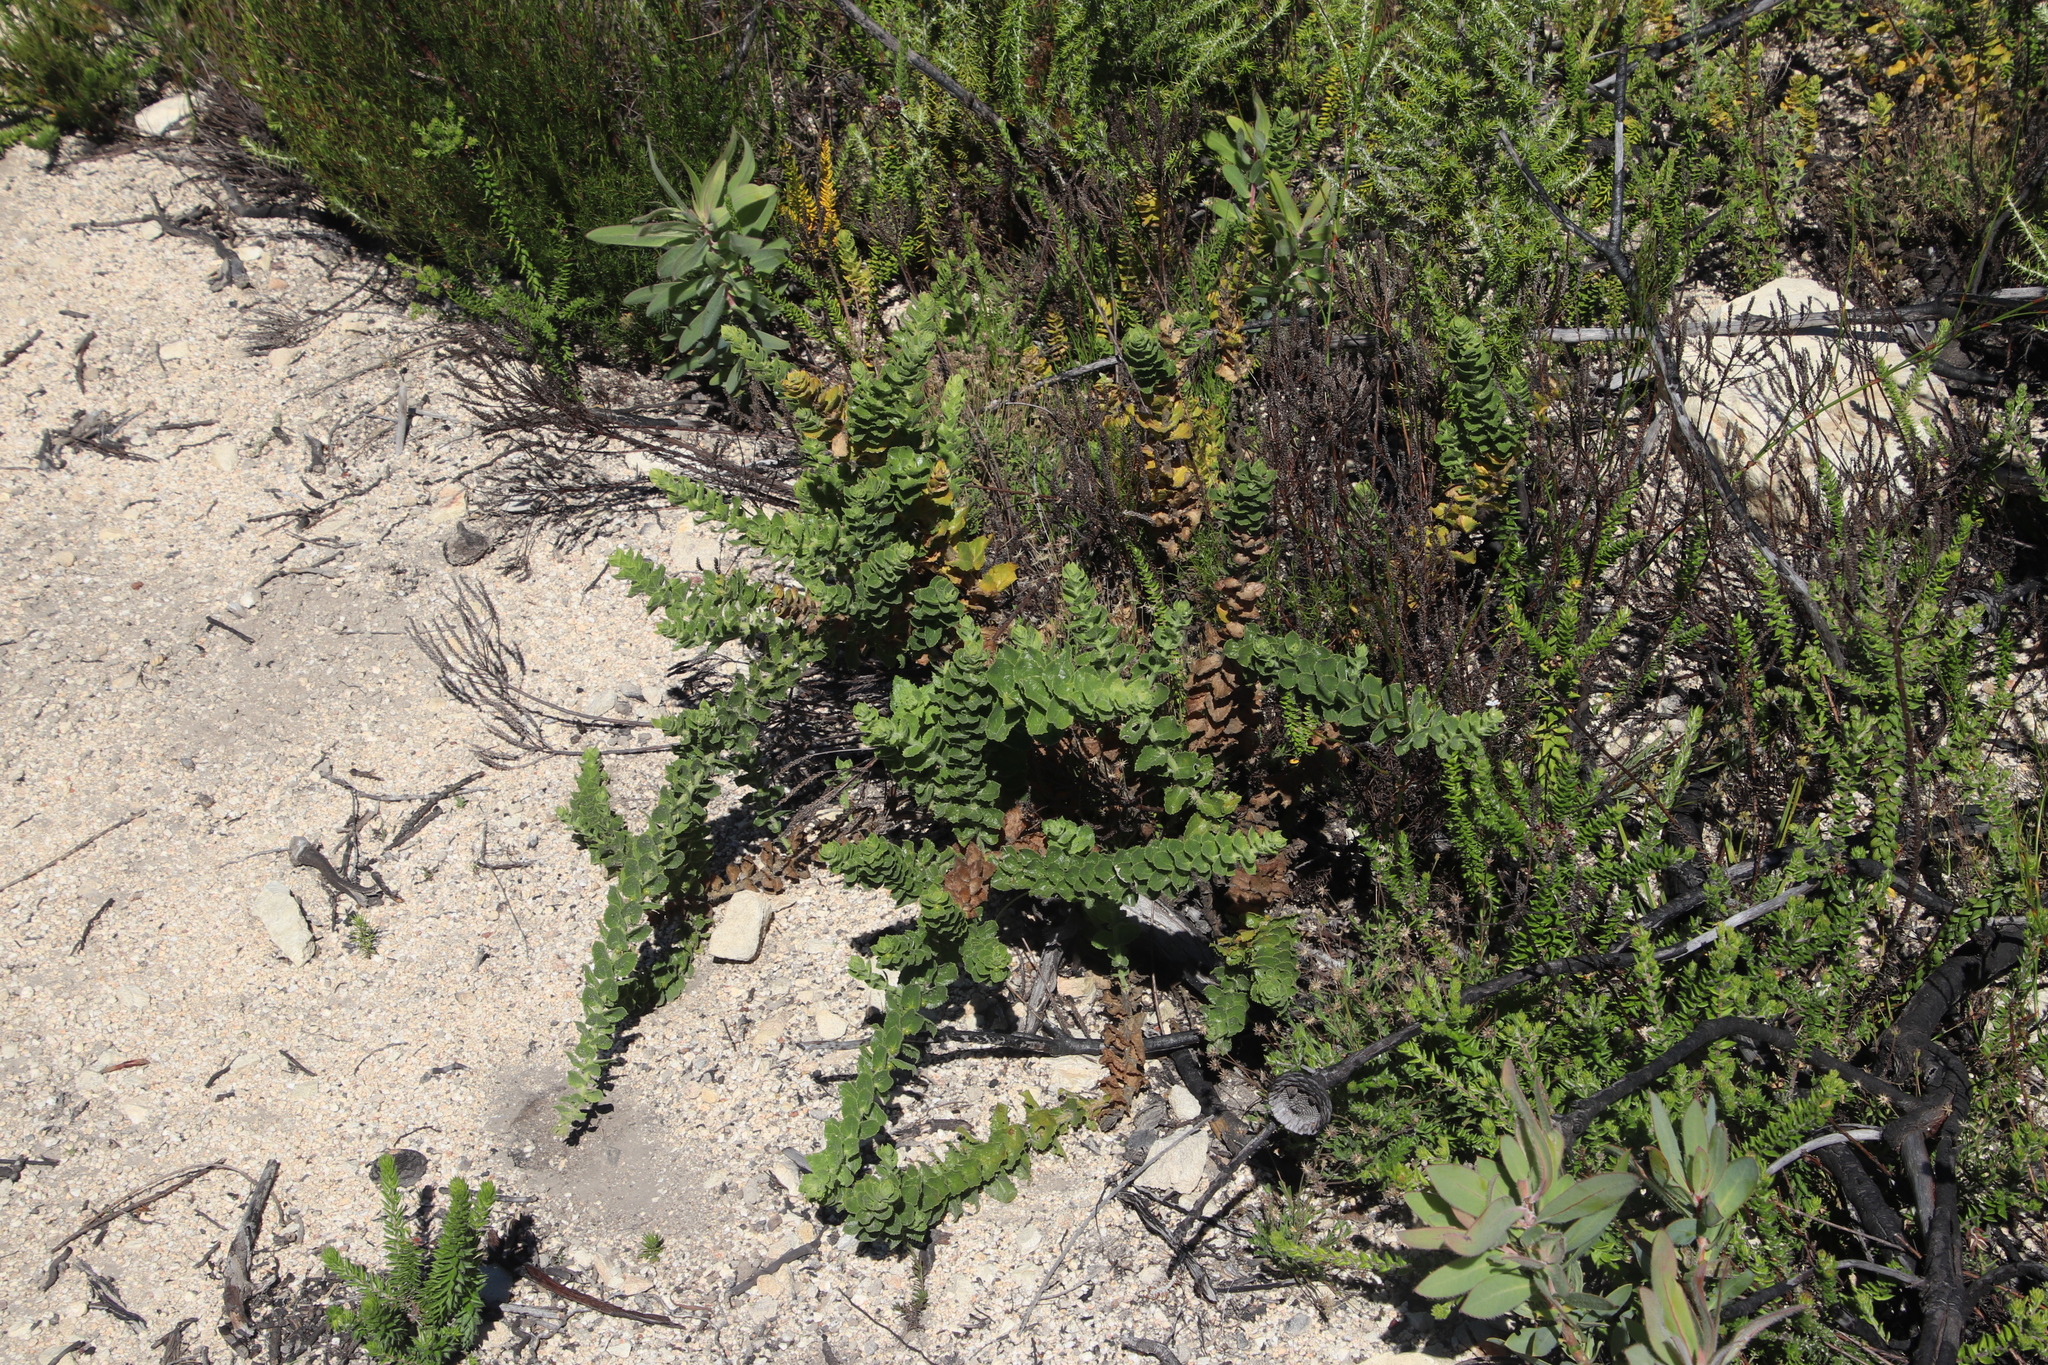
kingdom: Plantae
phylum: Tracheophyta
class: Magnoliopsida
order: Lamiales
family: Scrophulariaceae
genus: Oftia
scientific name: Oftia africana
